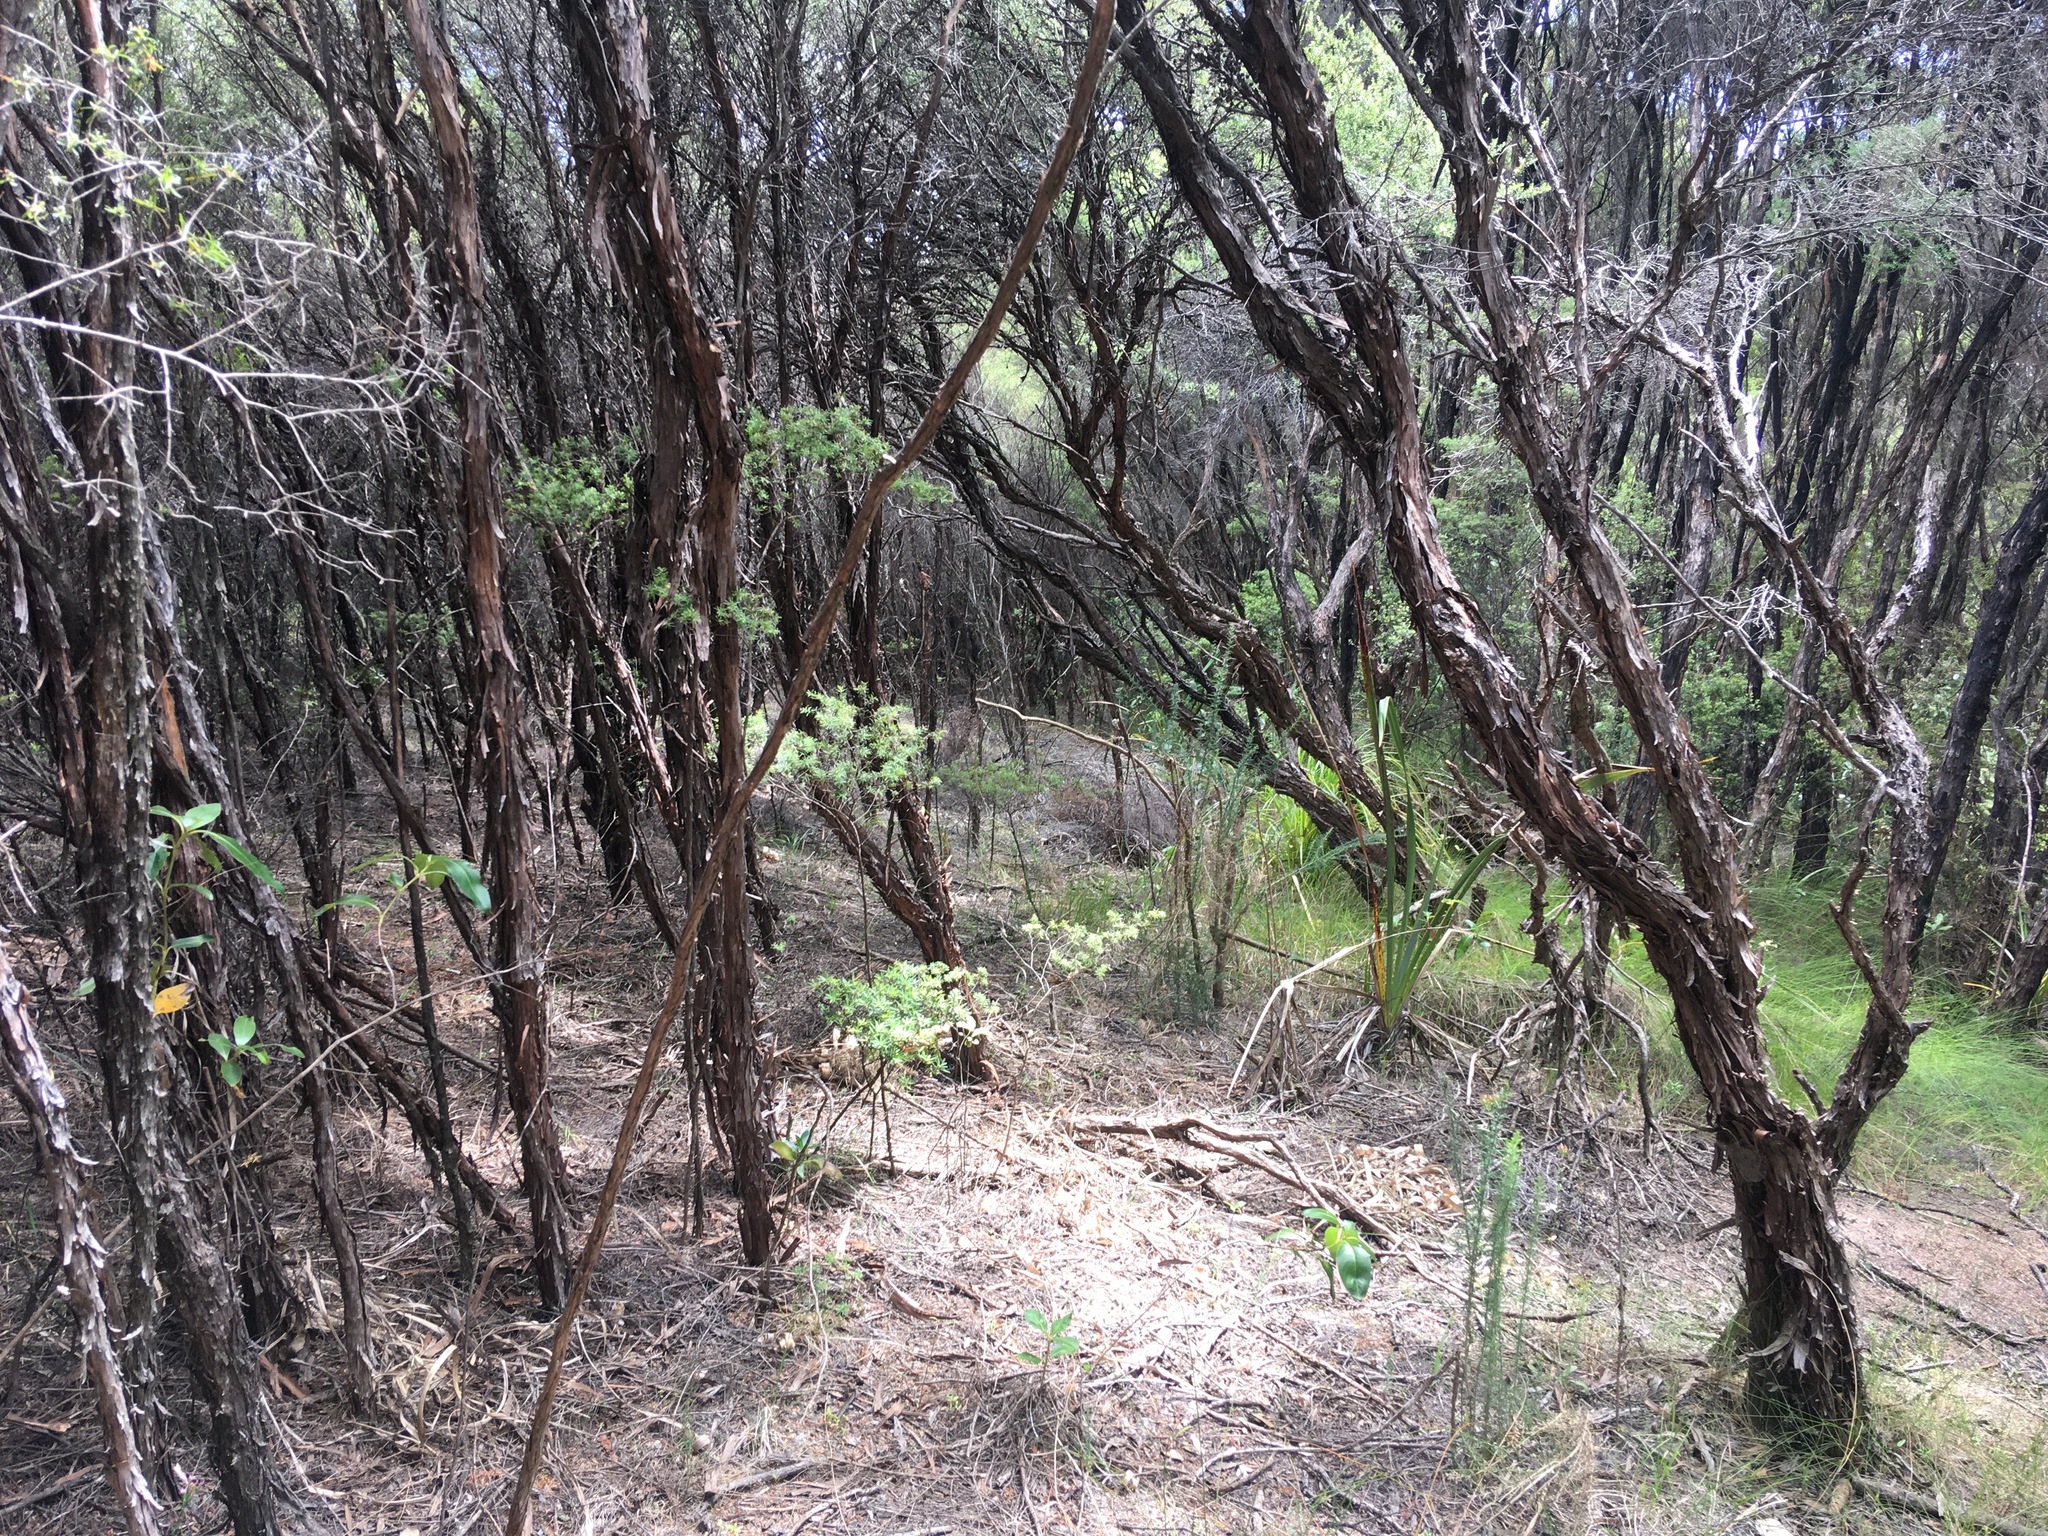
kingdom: Plantae
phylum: Tracheophyta
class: Magnoliopsida
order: Fabales
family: Fabaceae
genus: Ulex
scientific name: Ulex europaeus
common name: Common gorse
